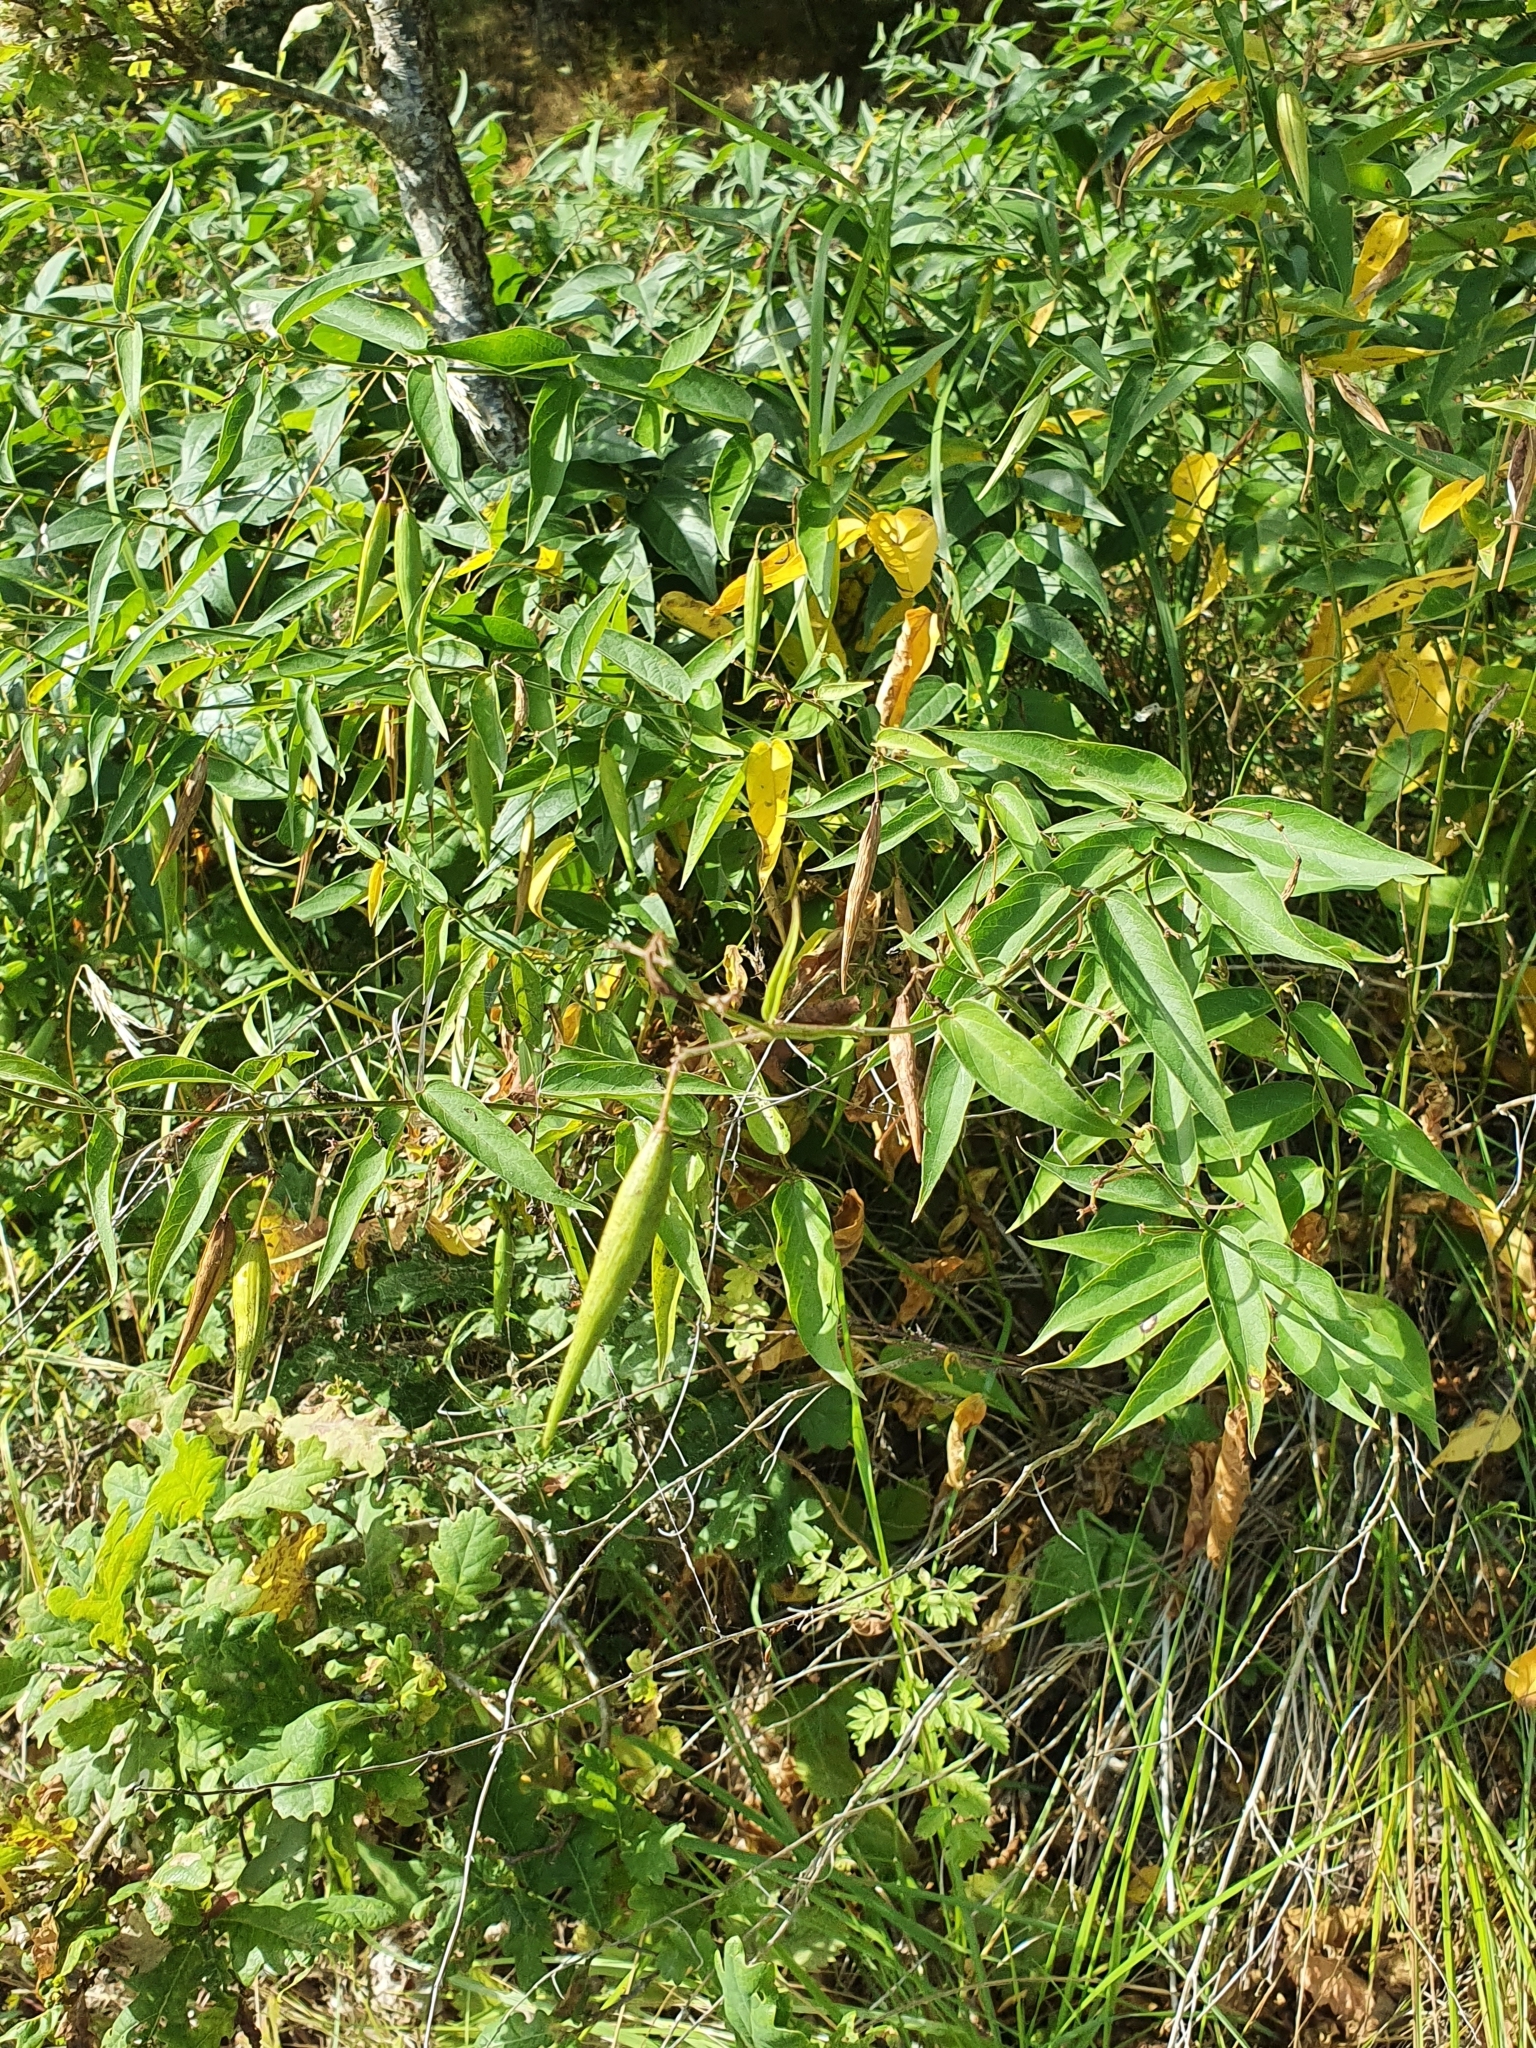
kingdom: Plantae
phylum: Tracheophyta
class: Magnoliopsida
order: Gentianales
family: Apocynaceae
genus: Vincetoxicum
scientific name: Vincetoxicum hirundinaria
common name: White swallowwort
